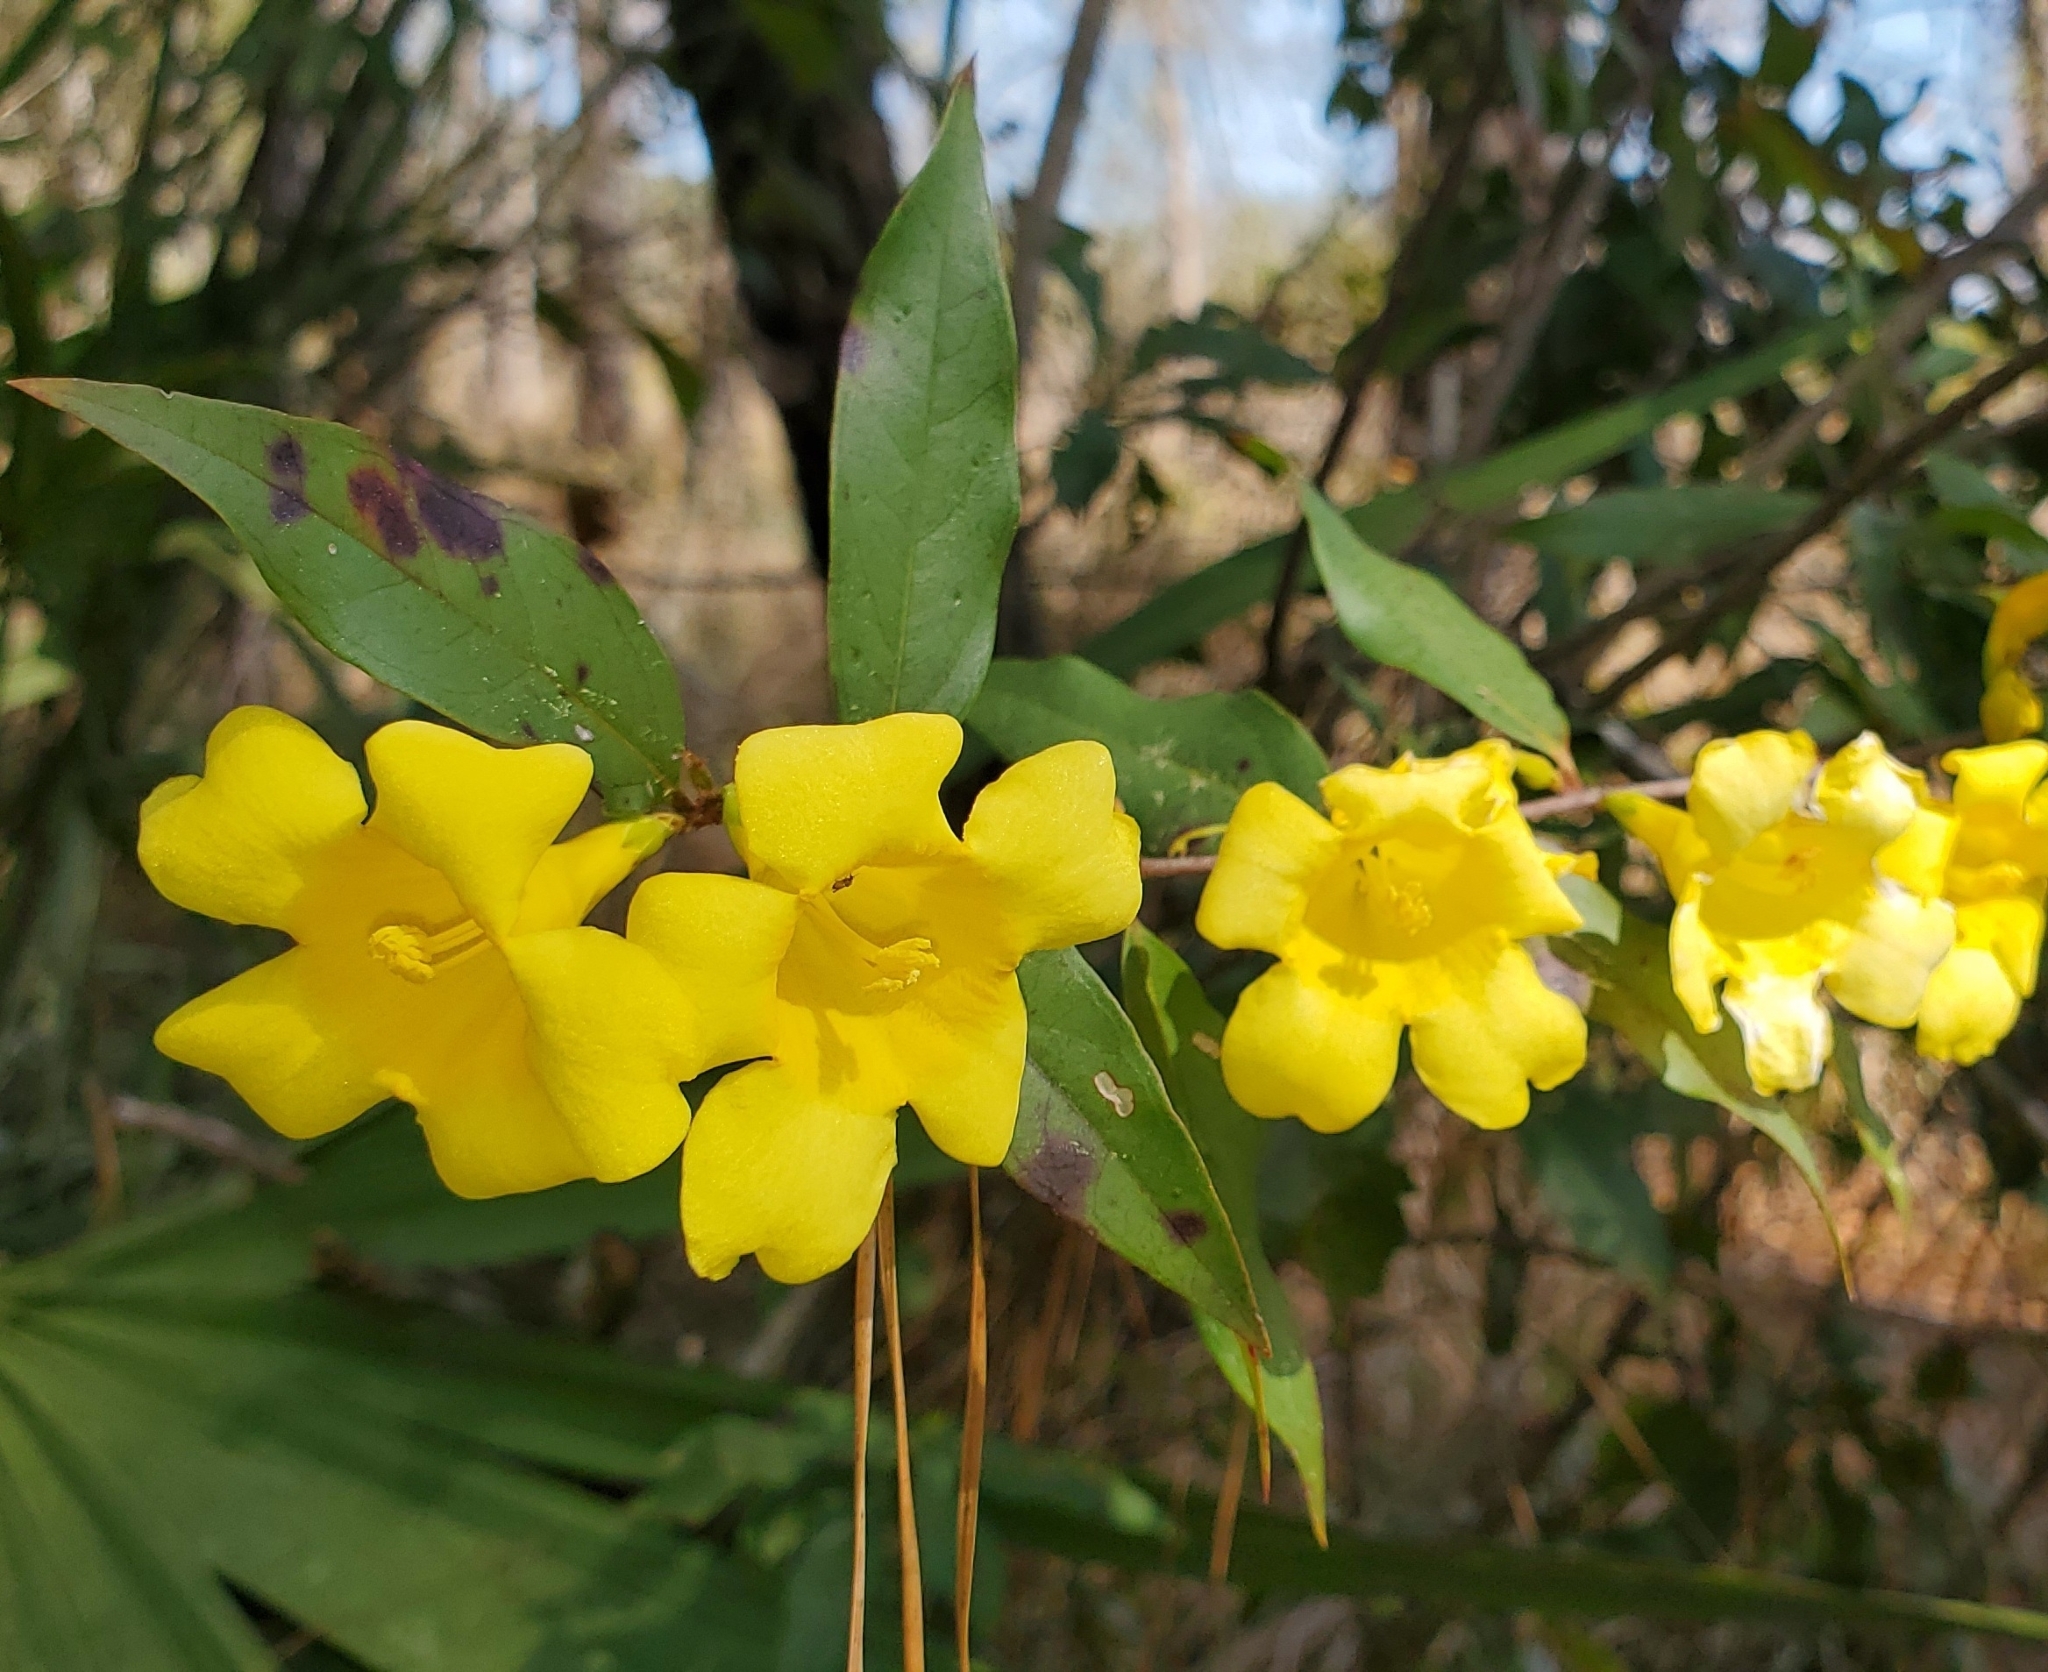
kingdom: Plantae
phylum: Tracheophyta
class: Magnoliopsida
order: Gentianales
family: Gelsemiaceae
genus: Gelsemium
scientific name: Gelsemium sempervirens
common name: Carolina-jasmine
